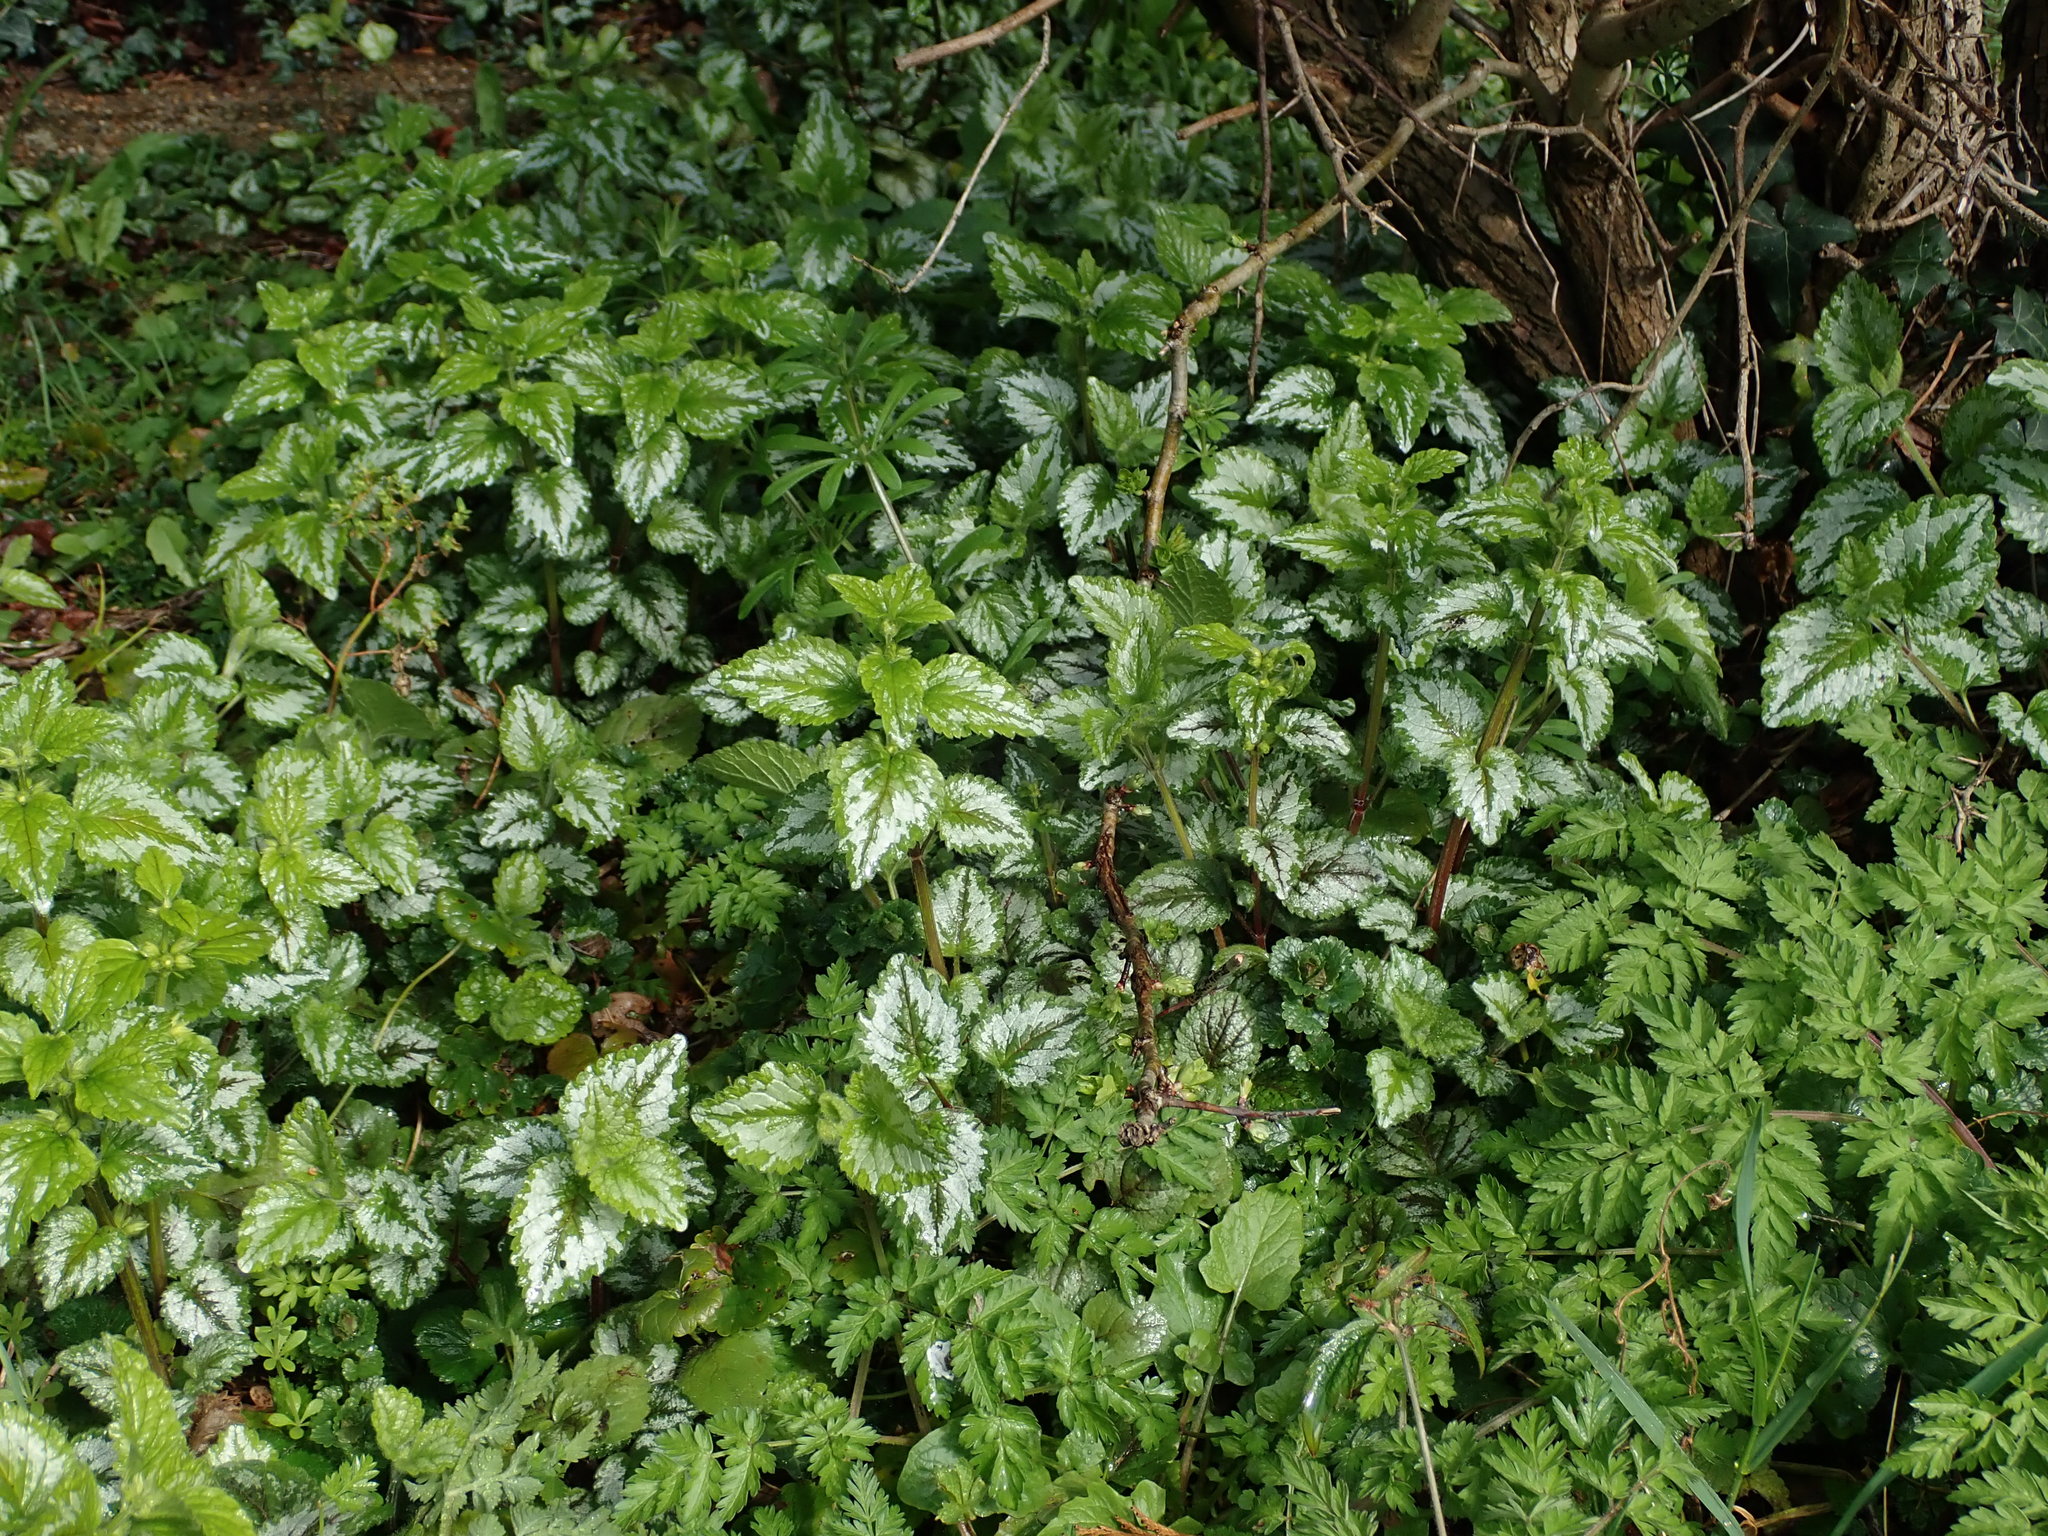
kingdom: Plantae
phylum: Tracheophyta
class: Magnoliopsida
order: Lamiales
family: Lamiaceae
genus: Lamium
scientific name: Lamium galeobdolon
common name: Yellow archangel
